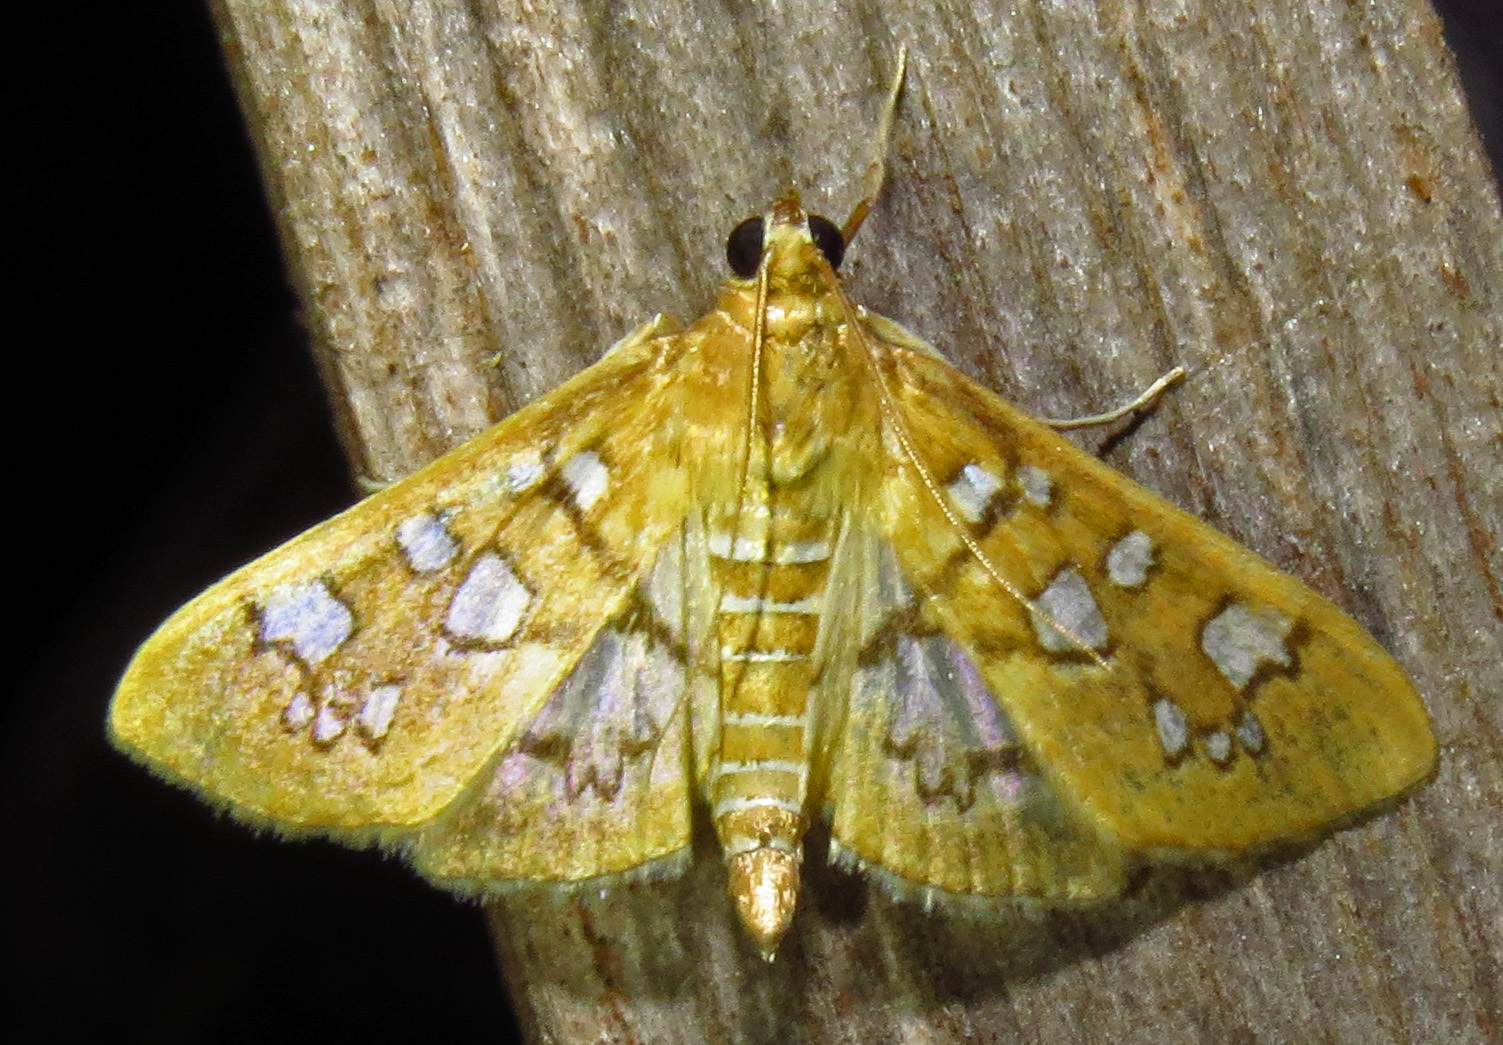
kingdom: Animalia
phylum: Arthropoda
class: Insecta
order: Lepidoptera
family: Crambidae
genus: Samea
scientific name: Samea baccatalis
